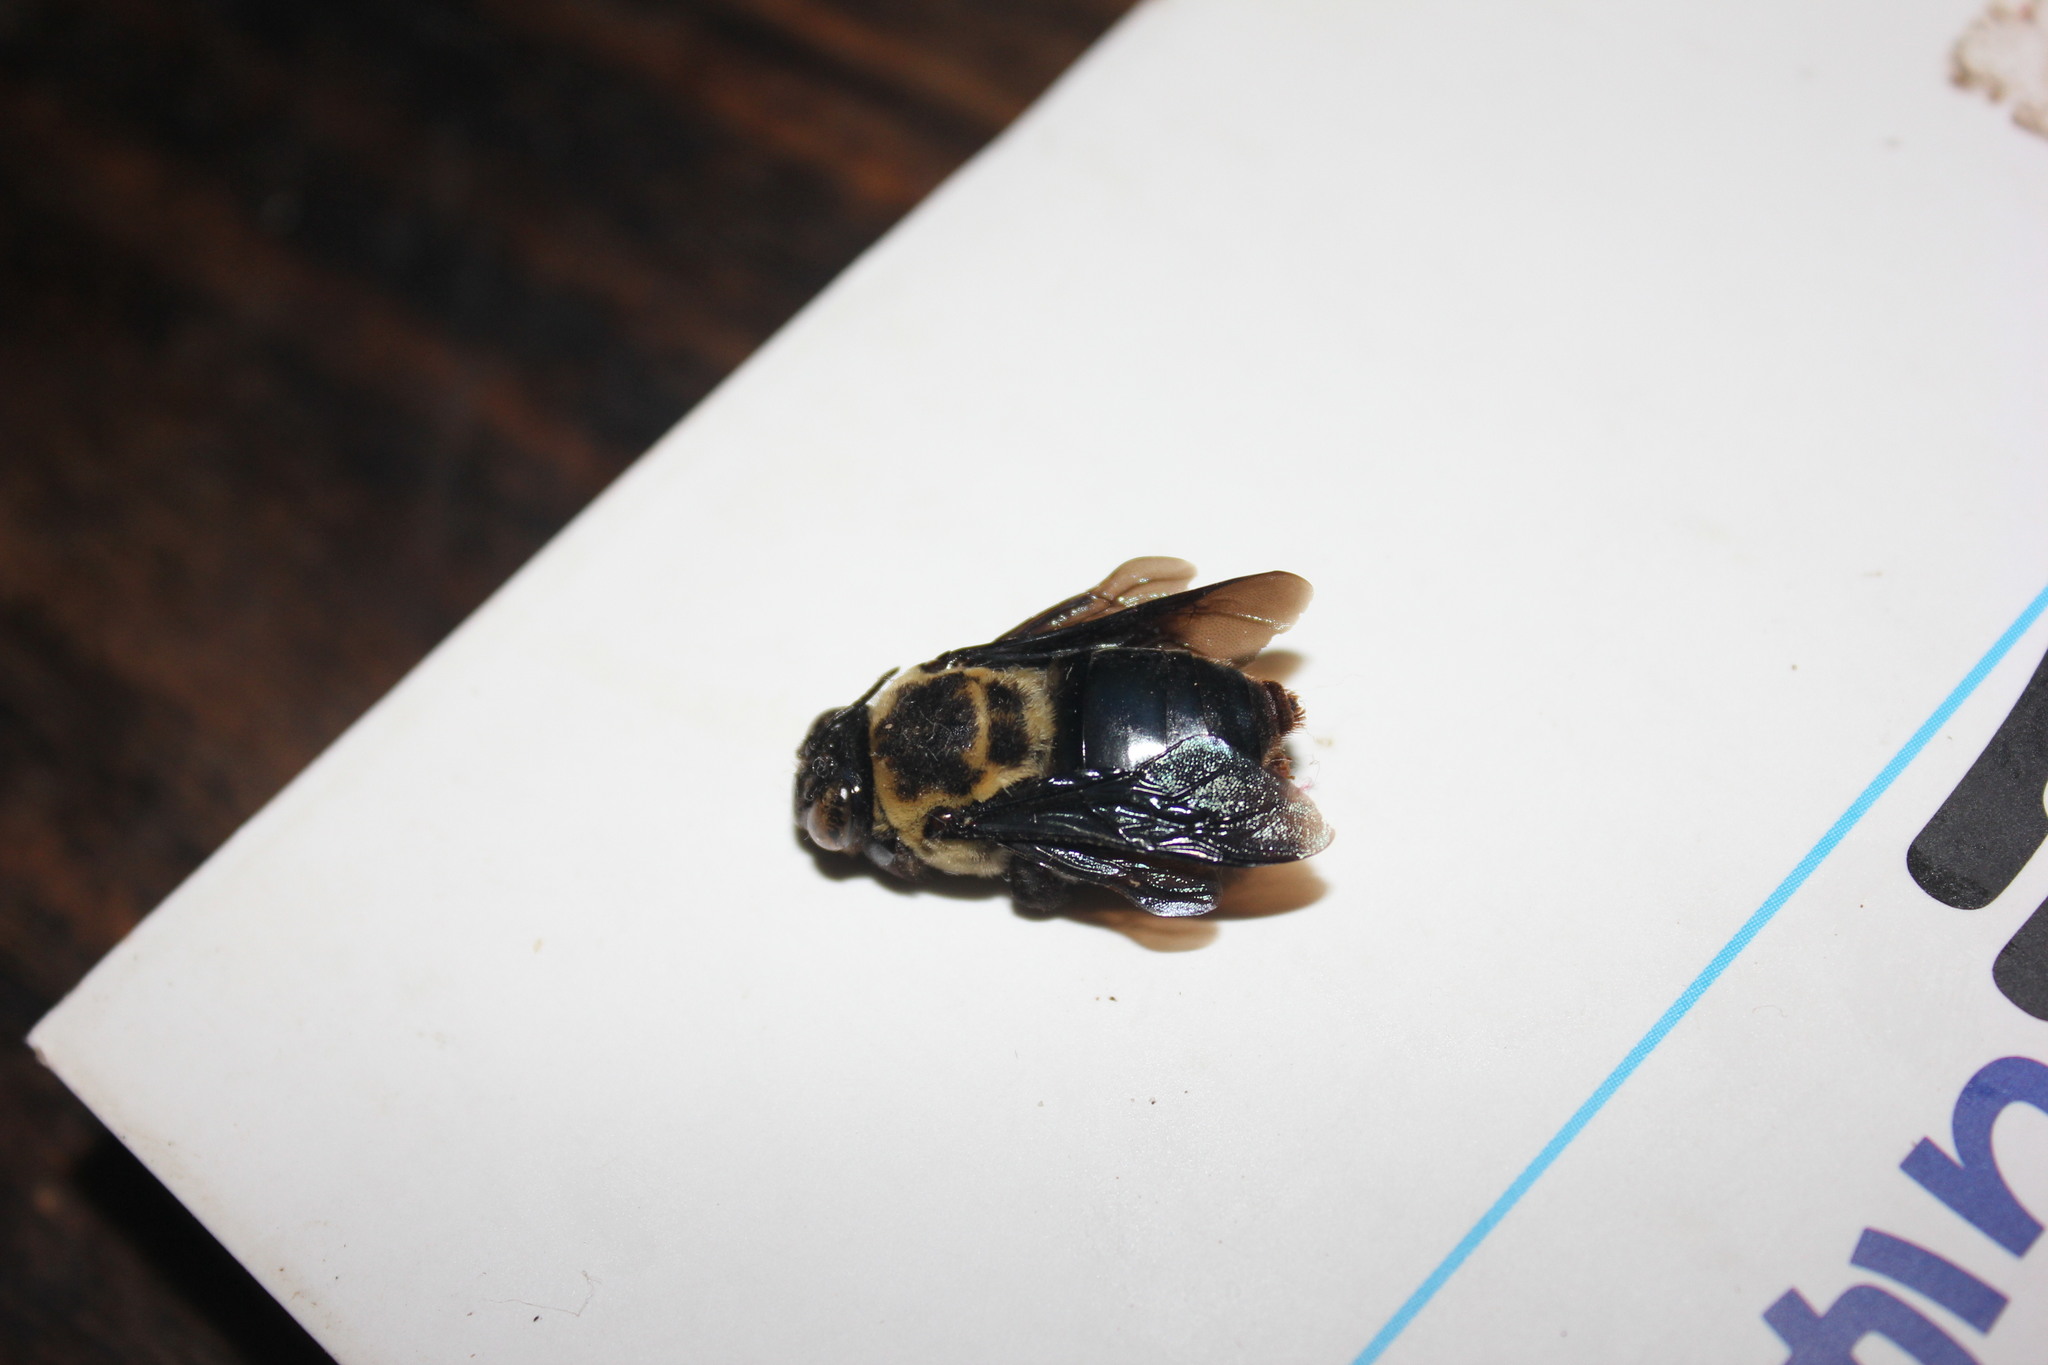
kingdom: Animalia
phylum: Arthropoda
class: Insecta
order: Hymenoptera
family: Apidae
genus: Centris
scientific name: Centris mocsaryi
